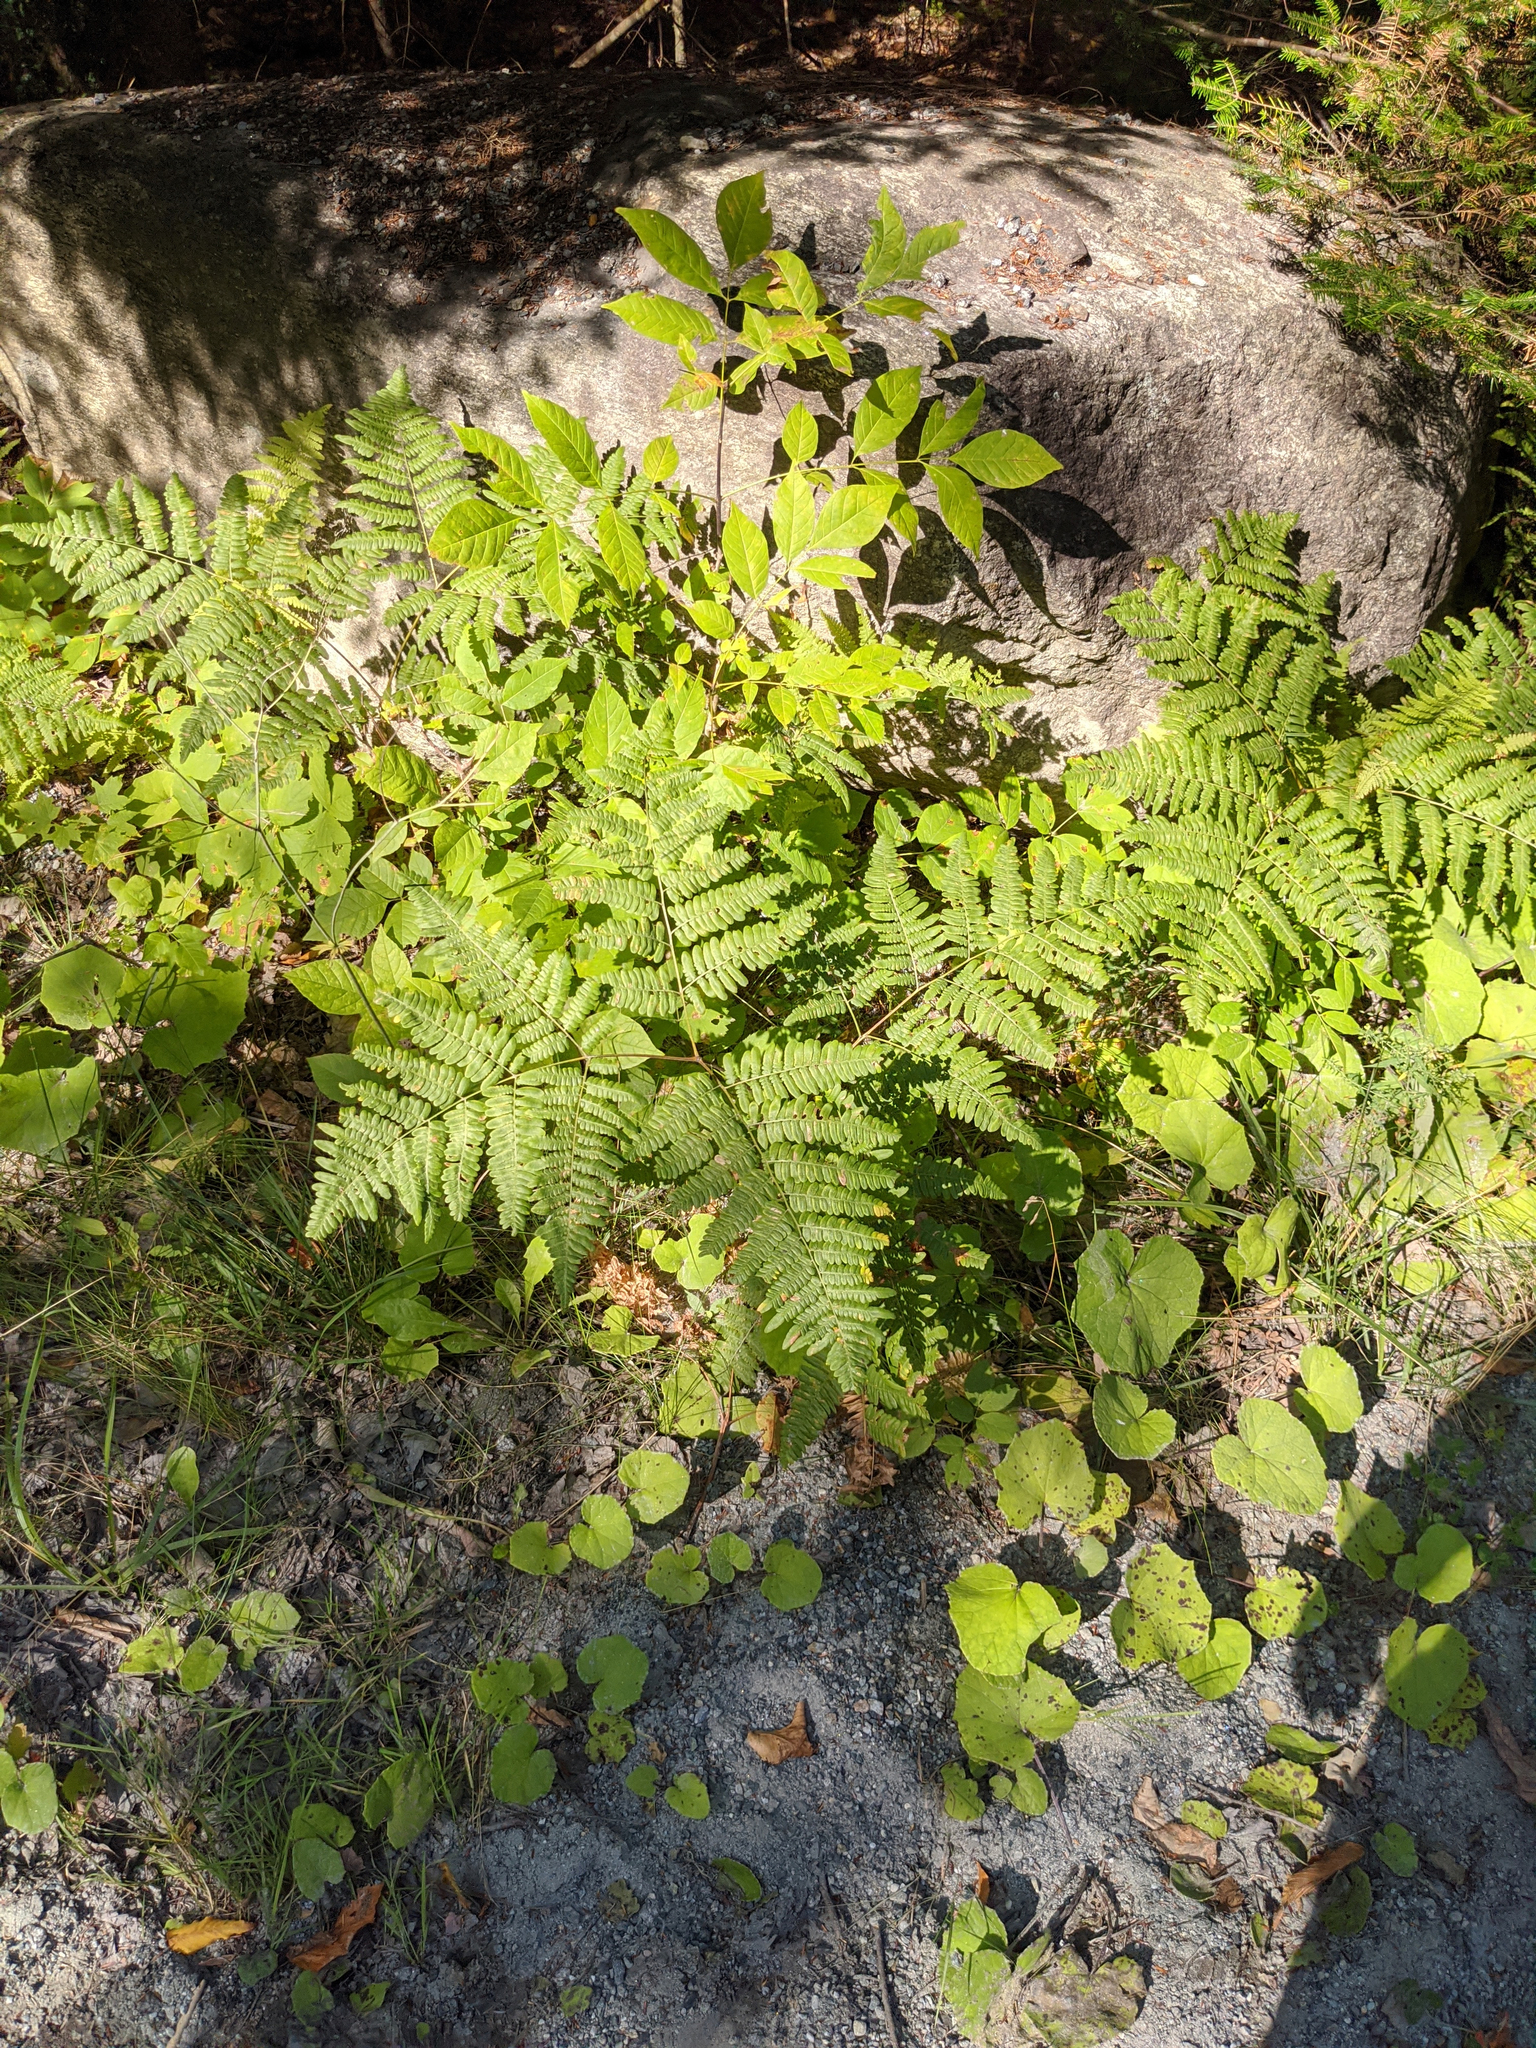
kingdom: Plantae
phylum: Tracheophyta
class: Polypodiopsida
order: Polypodiales
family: Dennstaedtiaceae
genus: Pteridium
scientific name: Pteridium aquilinum
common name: Bracken
